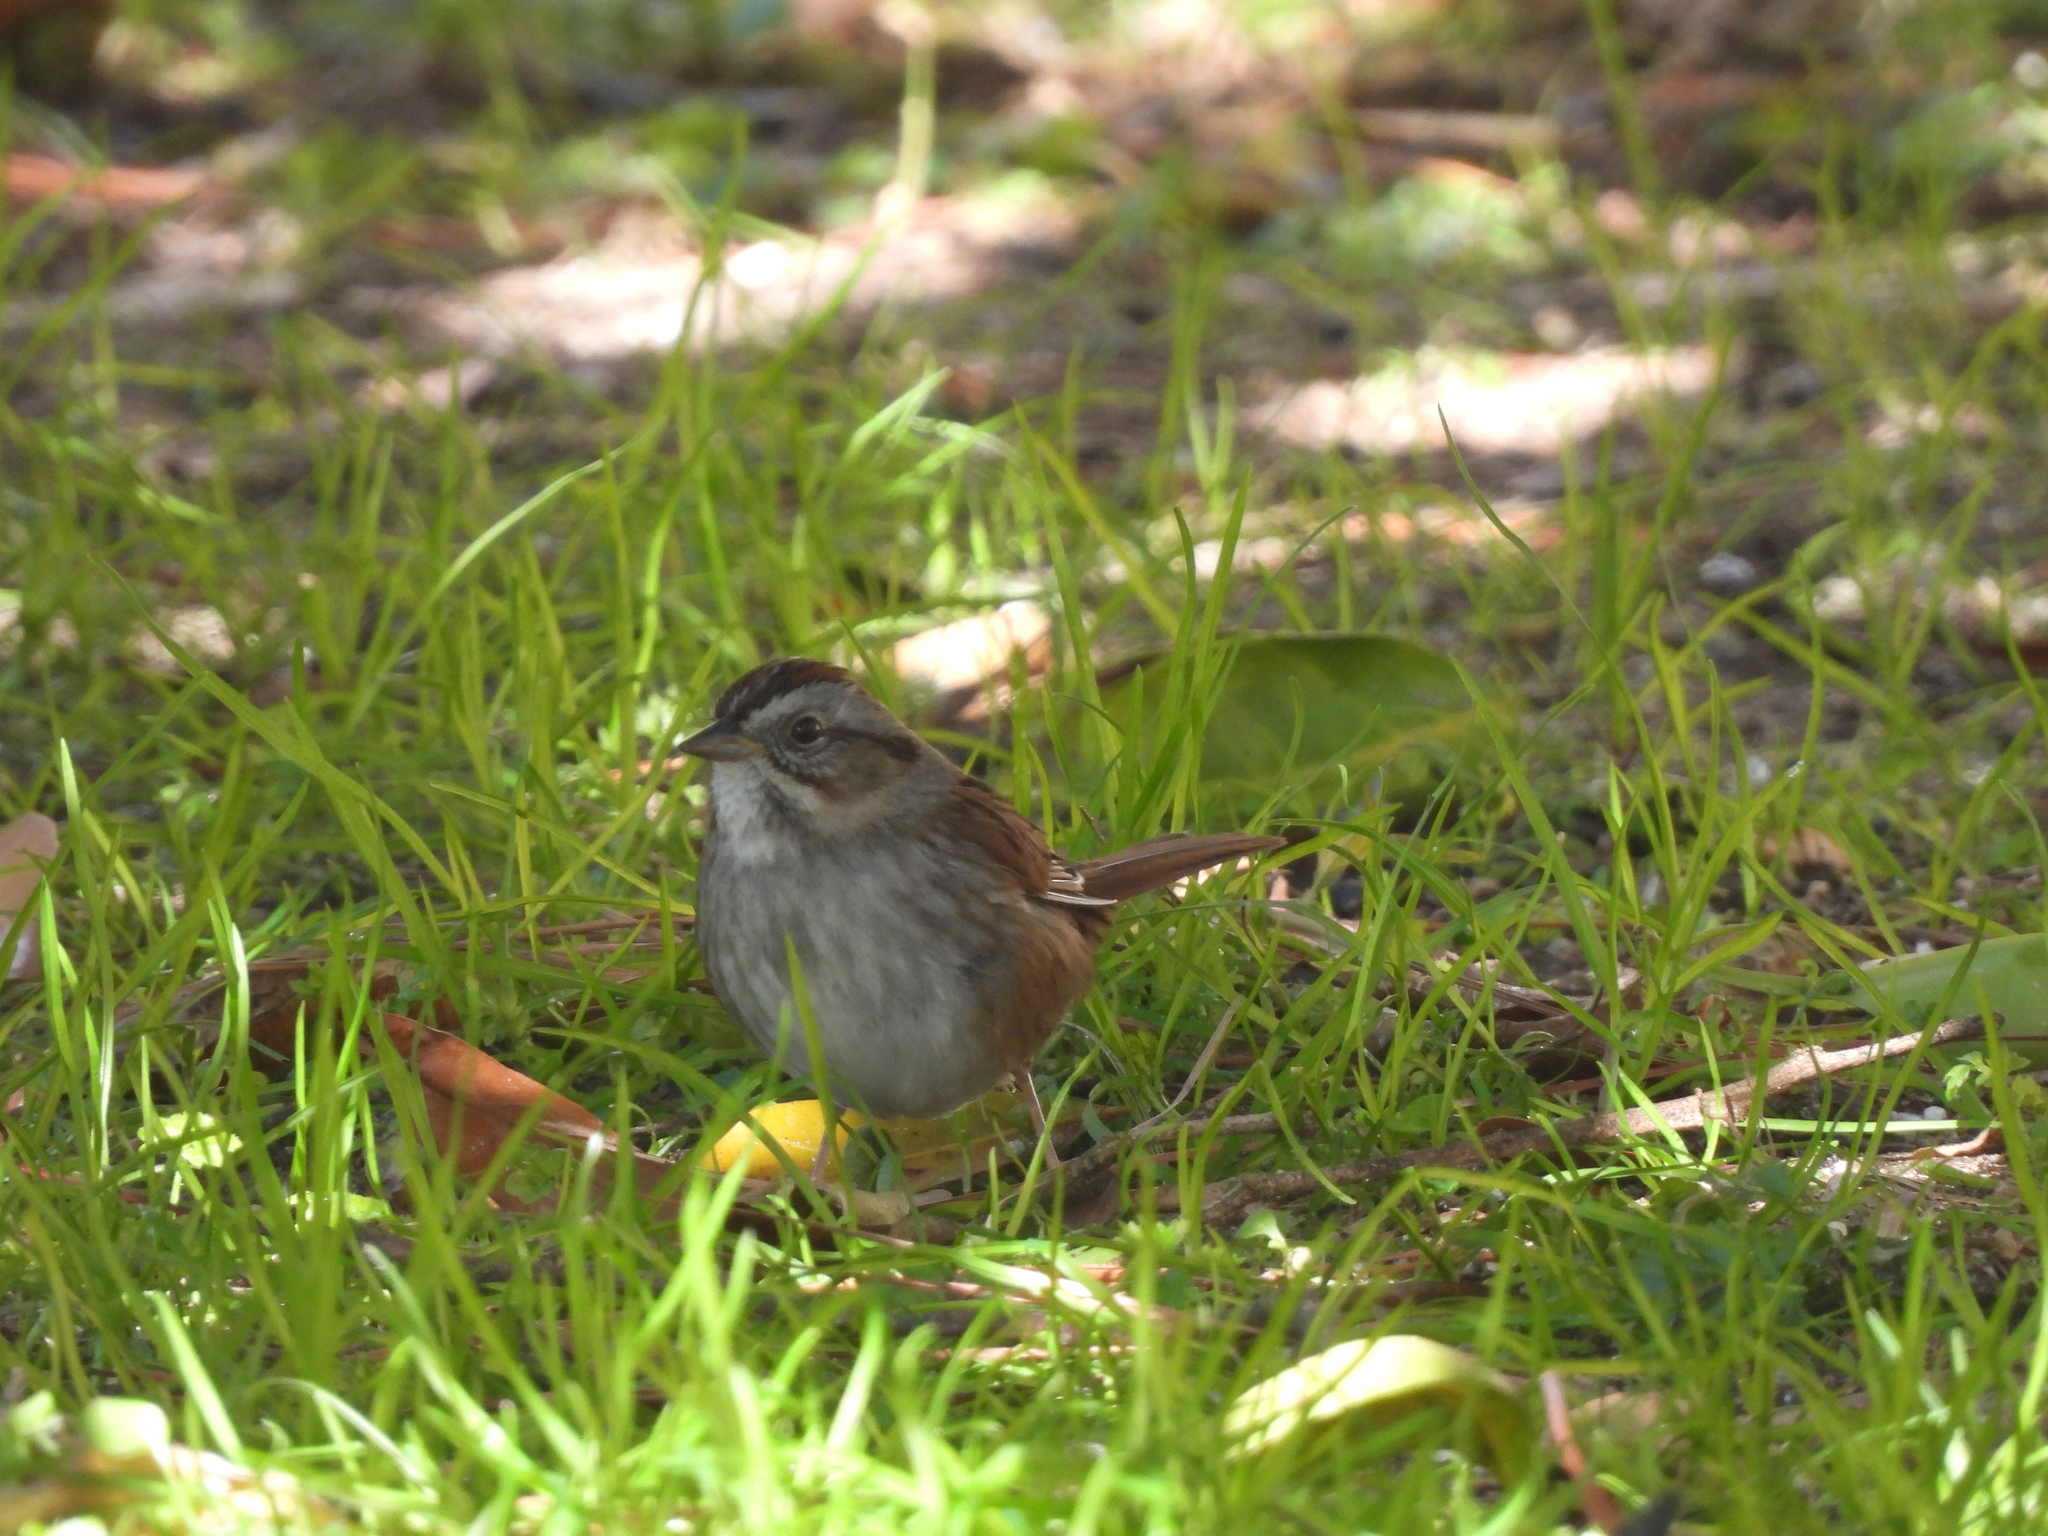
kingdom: Animalia
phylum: Chordata
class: Aves
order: Passeriformes
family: Passerellidae
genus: Melospiza
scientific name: Melospiza georgiana
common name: Swamp sparrow
